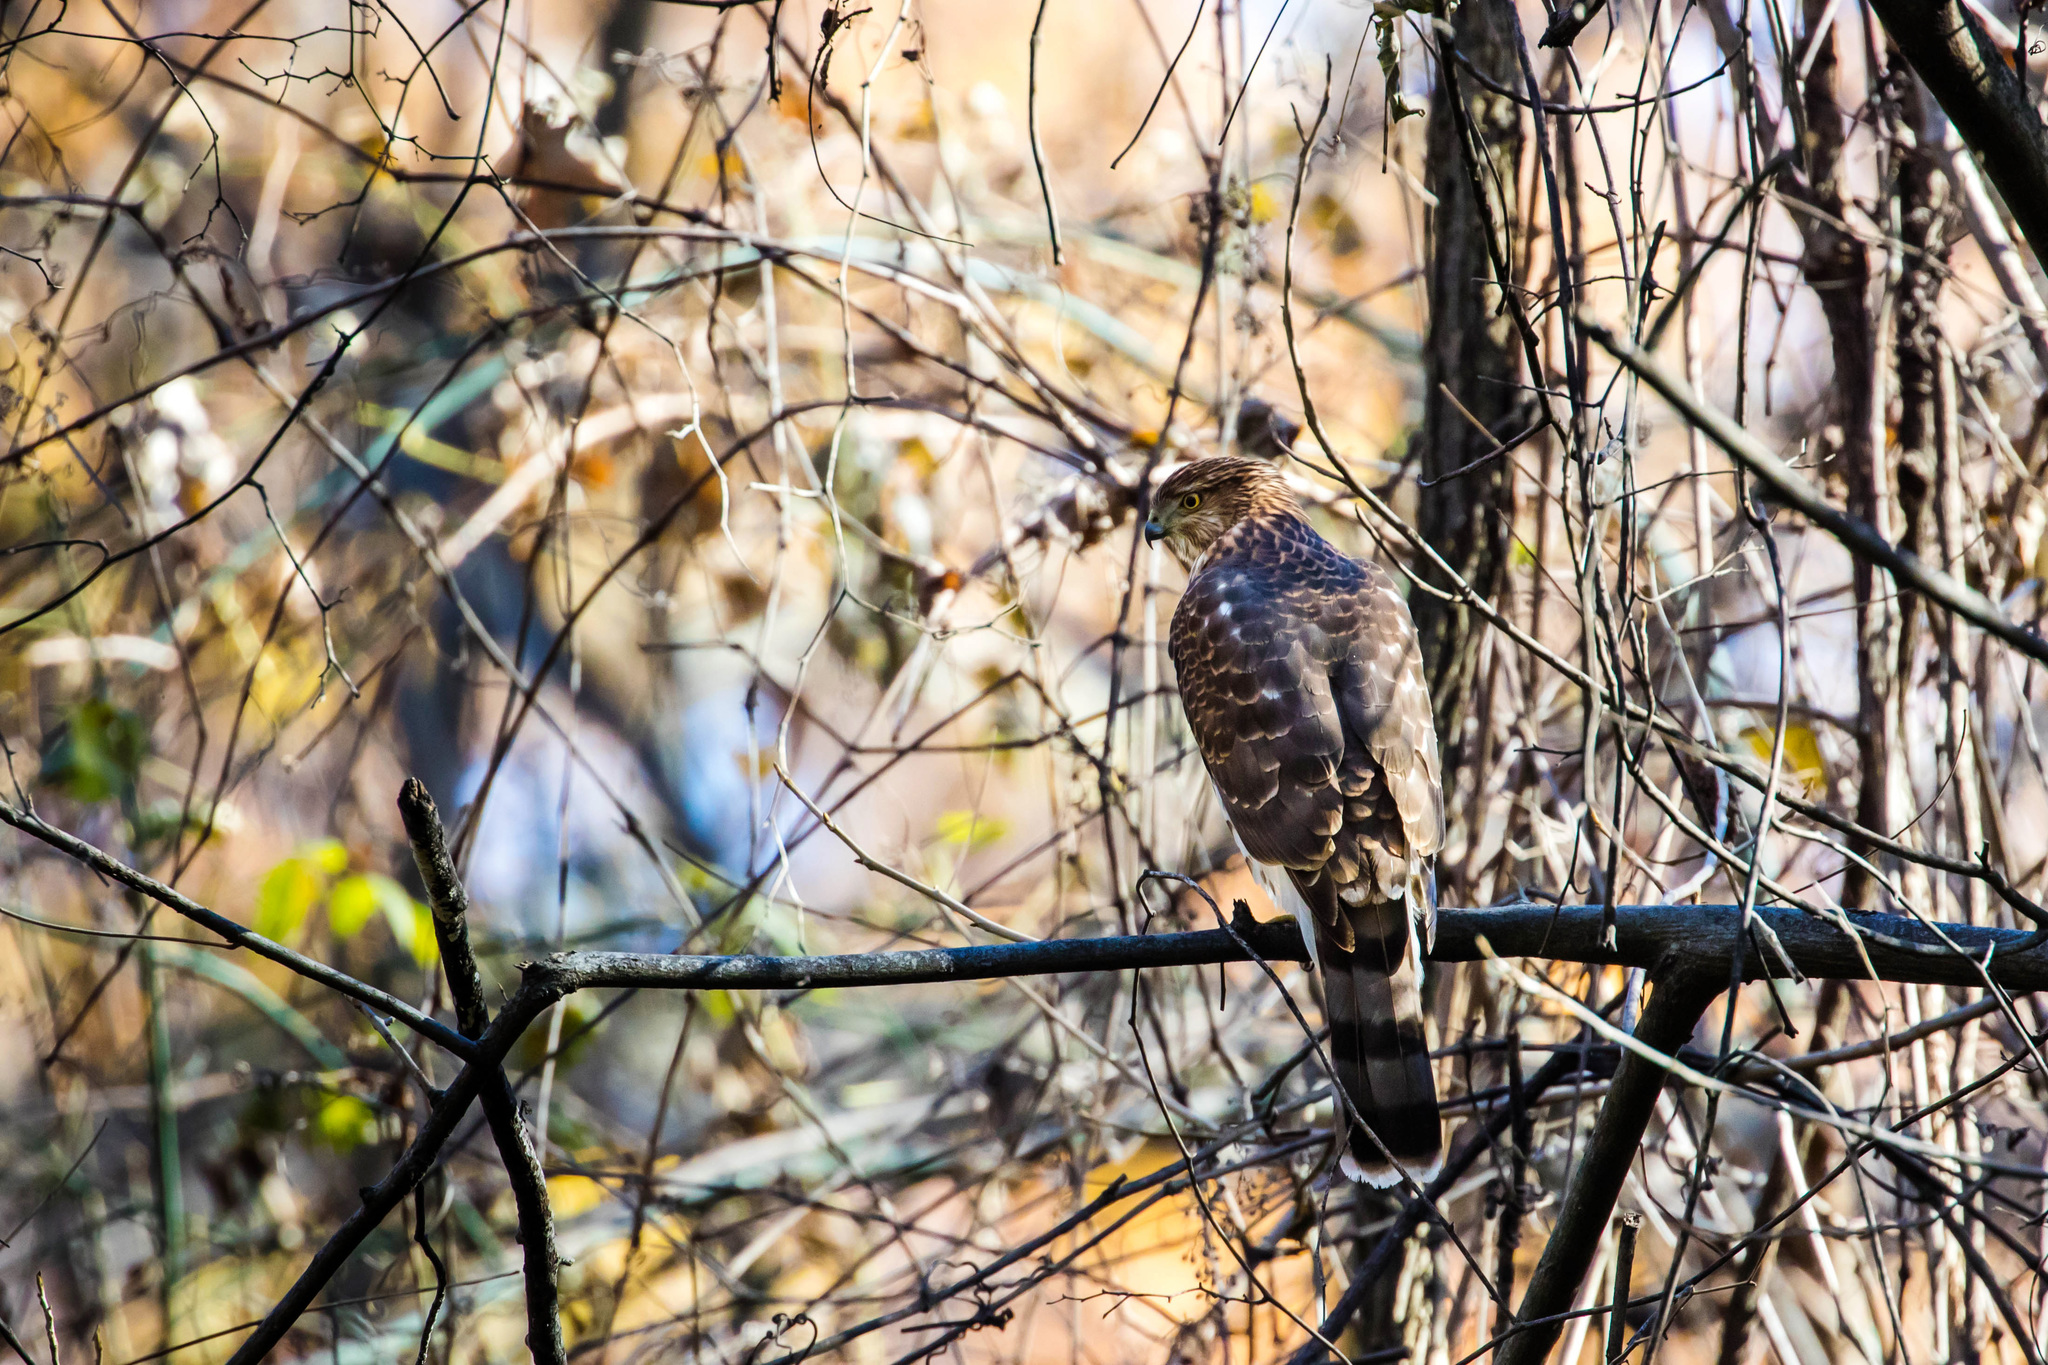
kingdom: Animalia
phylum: Chordata
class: Aves
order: Accipitriformes
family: Accipitridae
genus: Accipiter
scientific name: Accipiter cooperii
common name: Cooper's hawk
